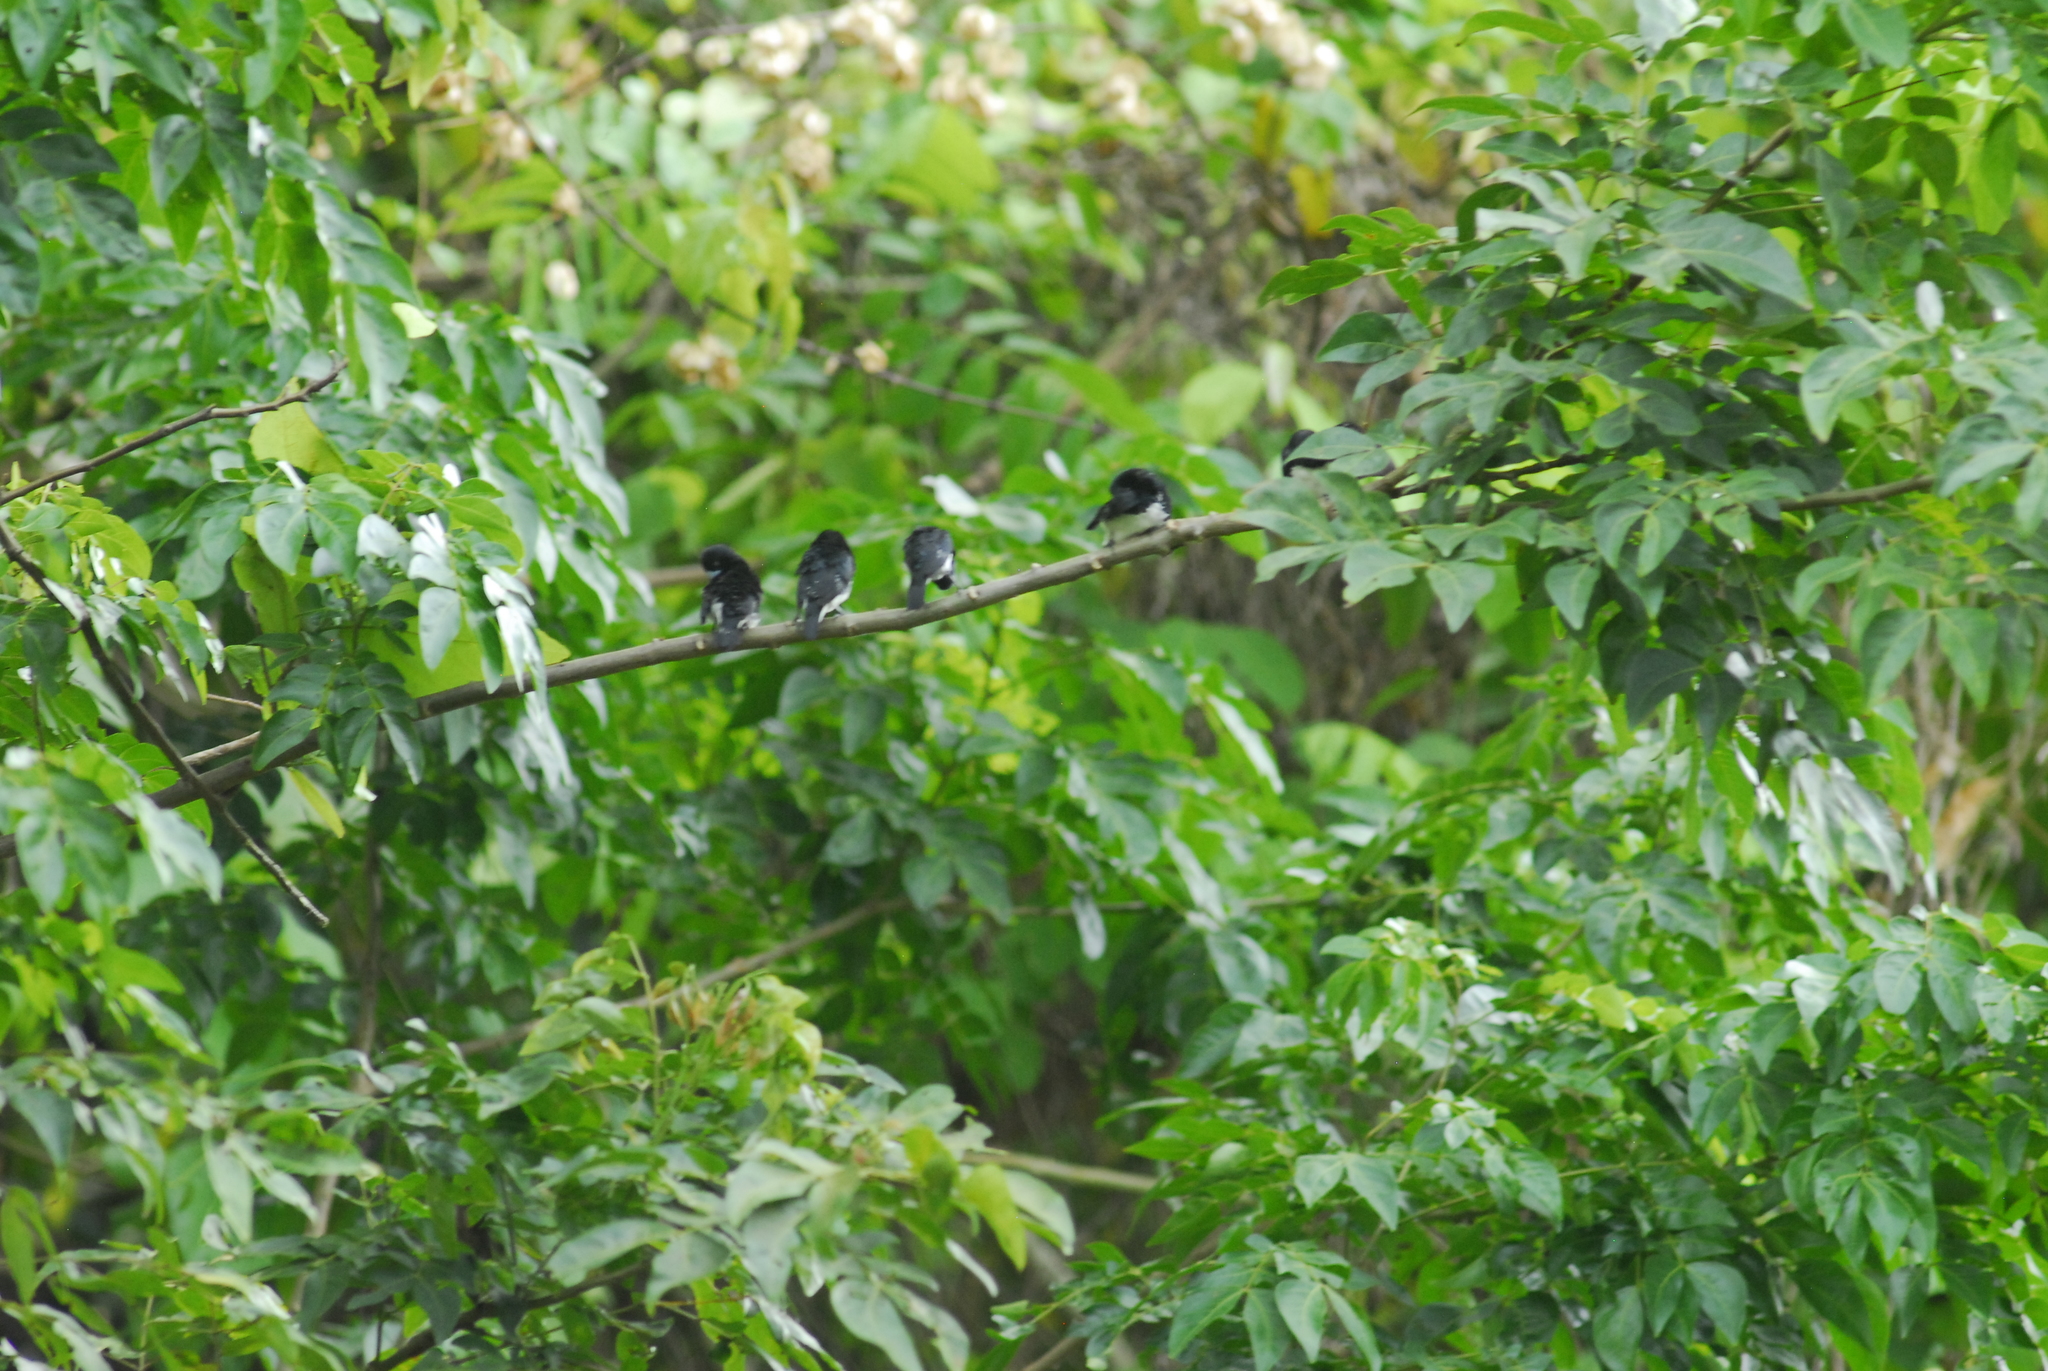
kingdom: Animalia
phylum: Chordata
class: Aves
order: Passeriformes
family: Estrildidae
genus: Lonchura
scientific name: Lonchura bicolor
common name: Black-and-white mannikin
